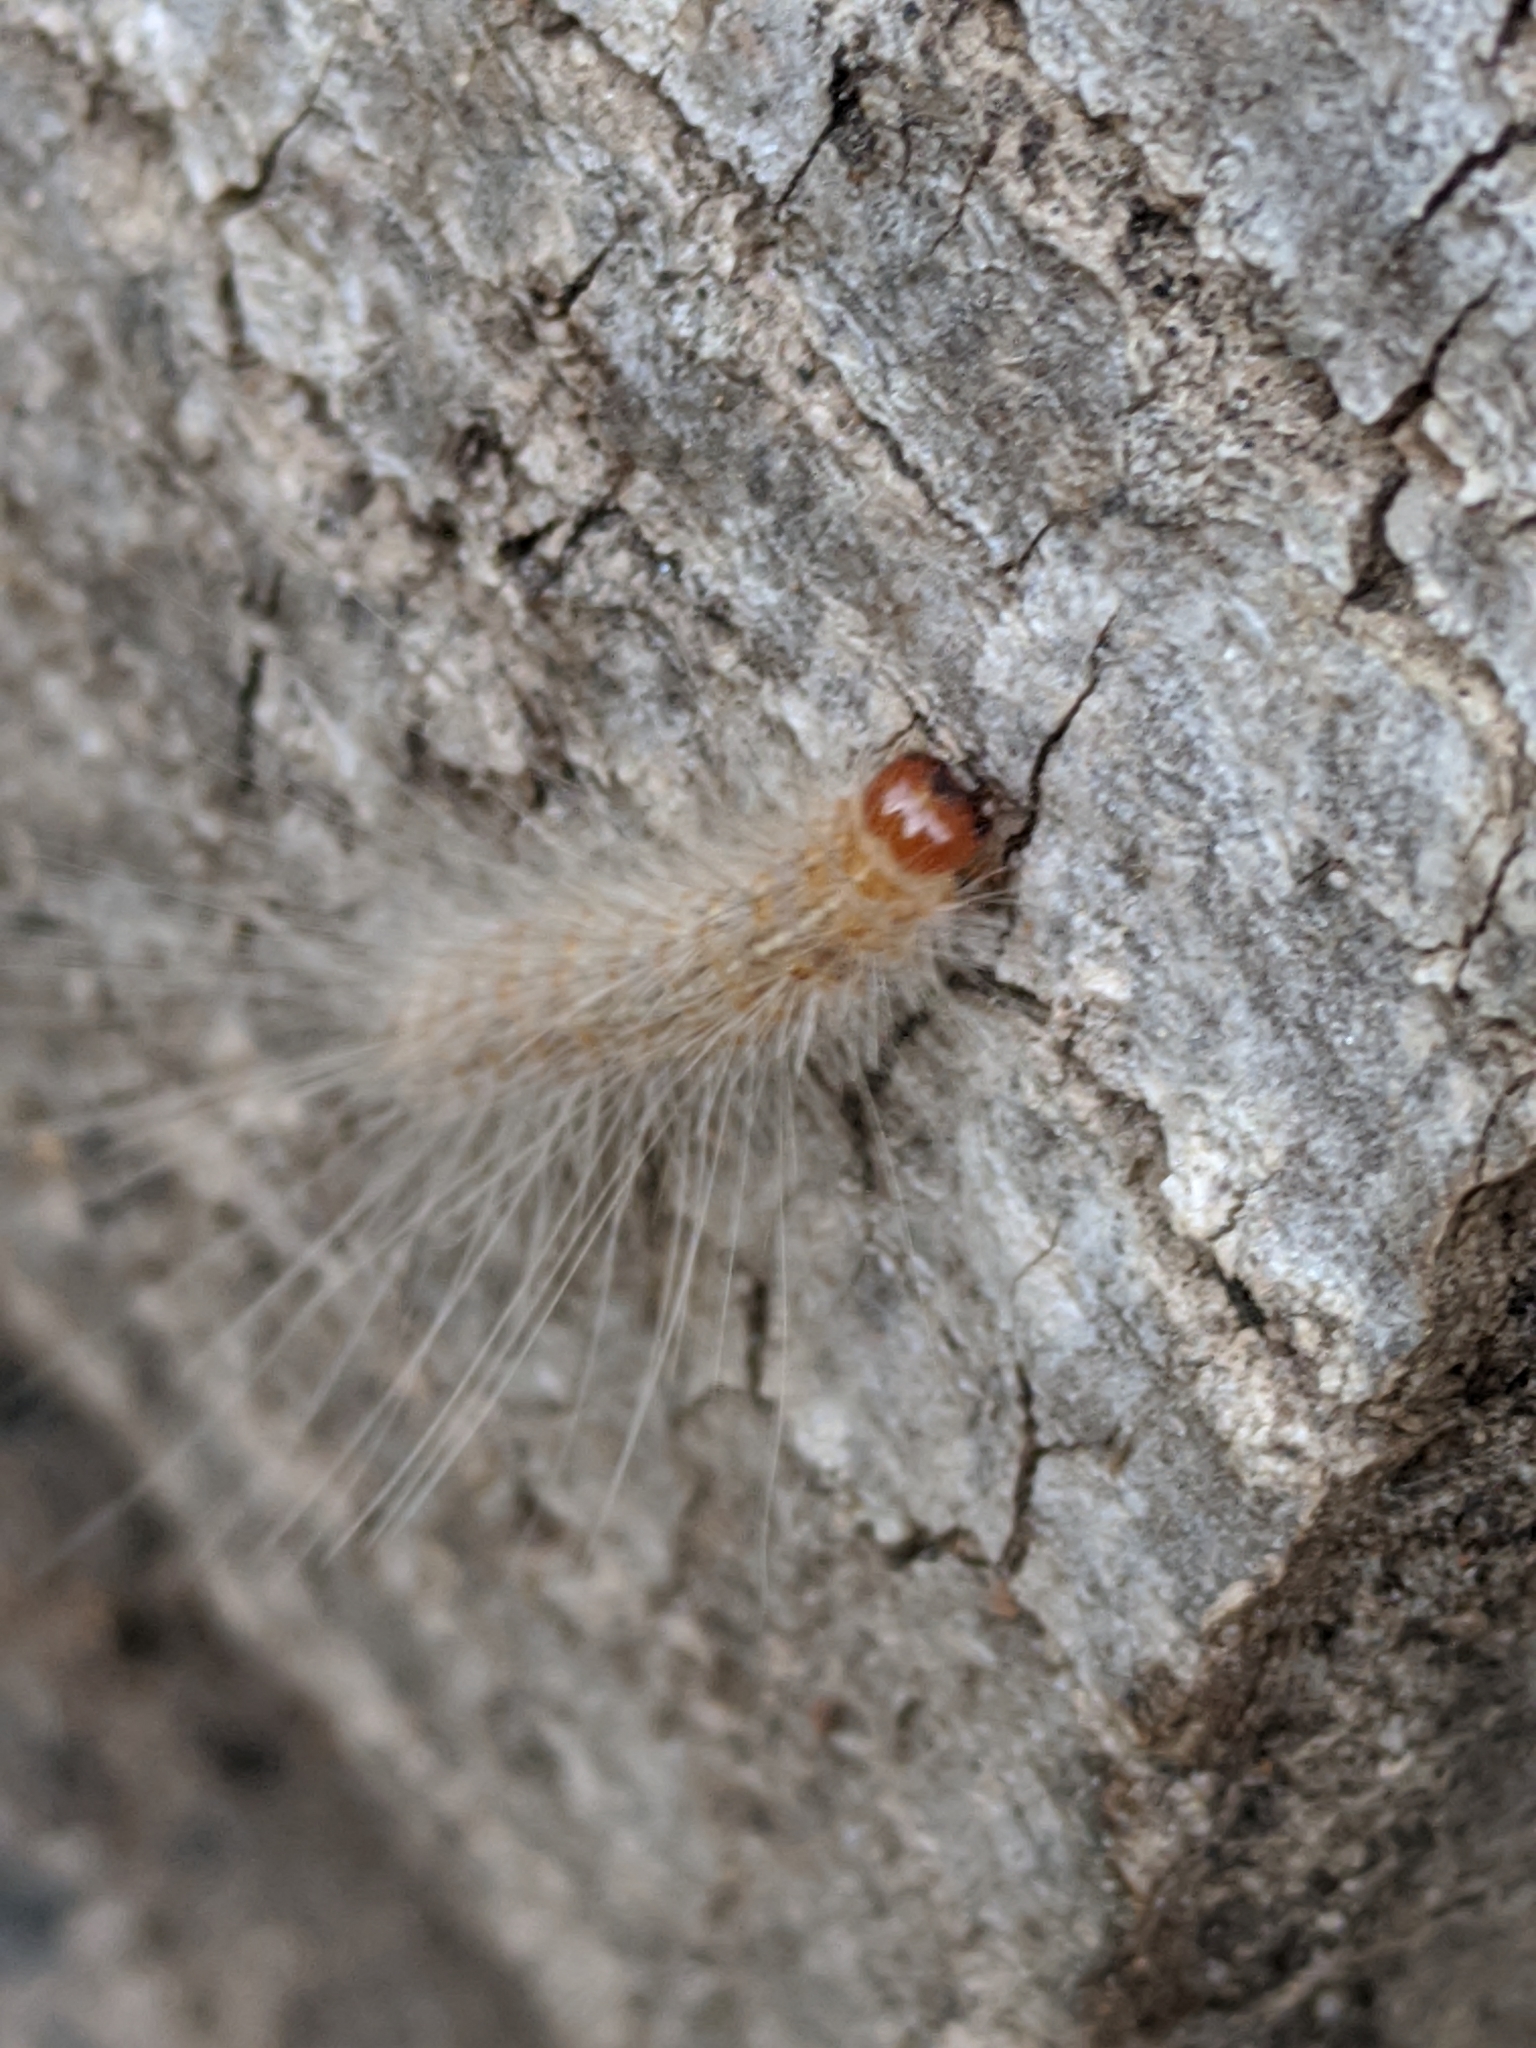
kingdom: Animalia
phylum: Arthropoda
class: Insecta
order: Lepidoptera
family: Erebidae
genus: Hyphantria
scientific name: Hyphantria cunea
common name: American white moth
